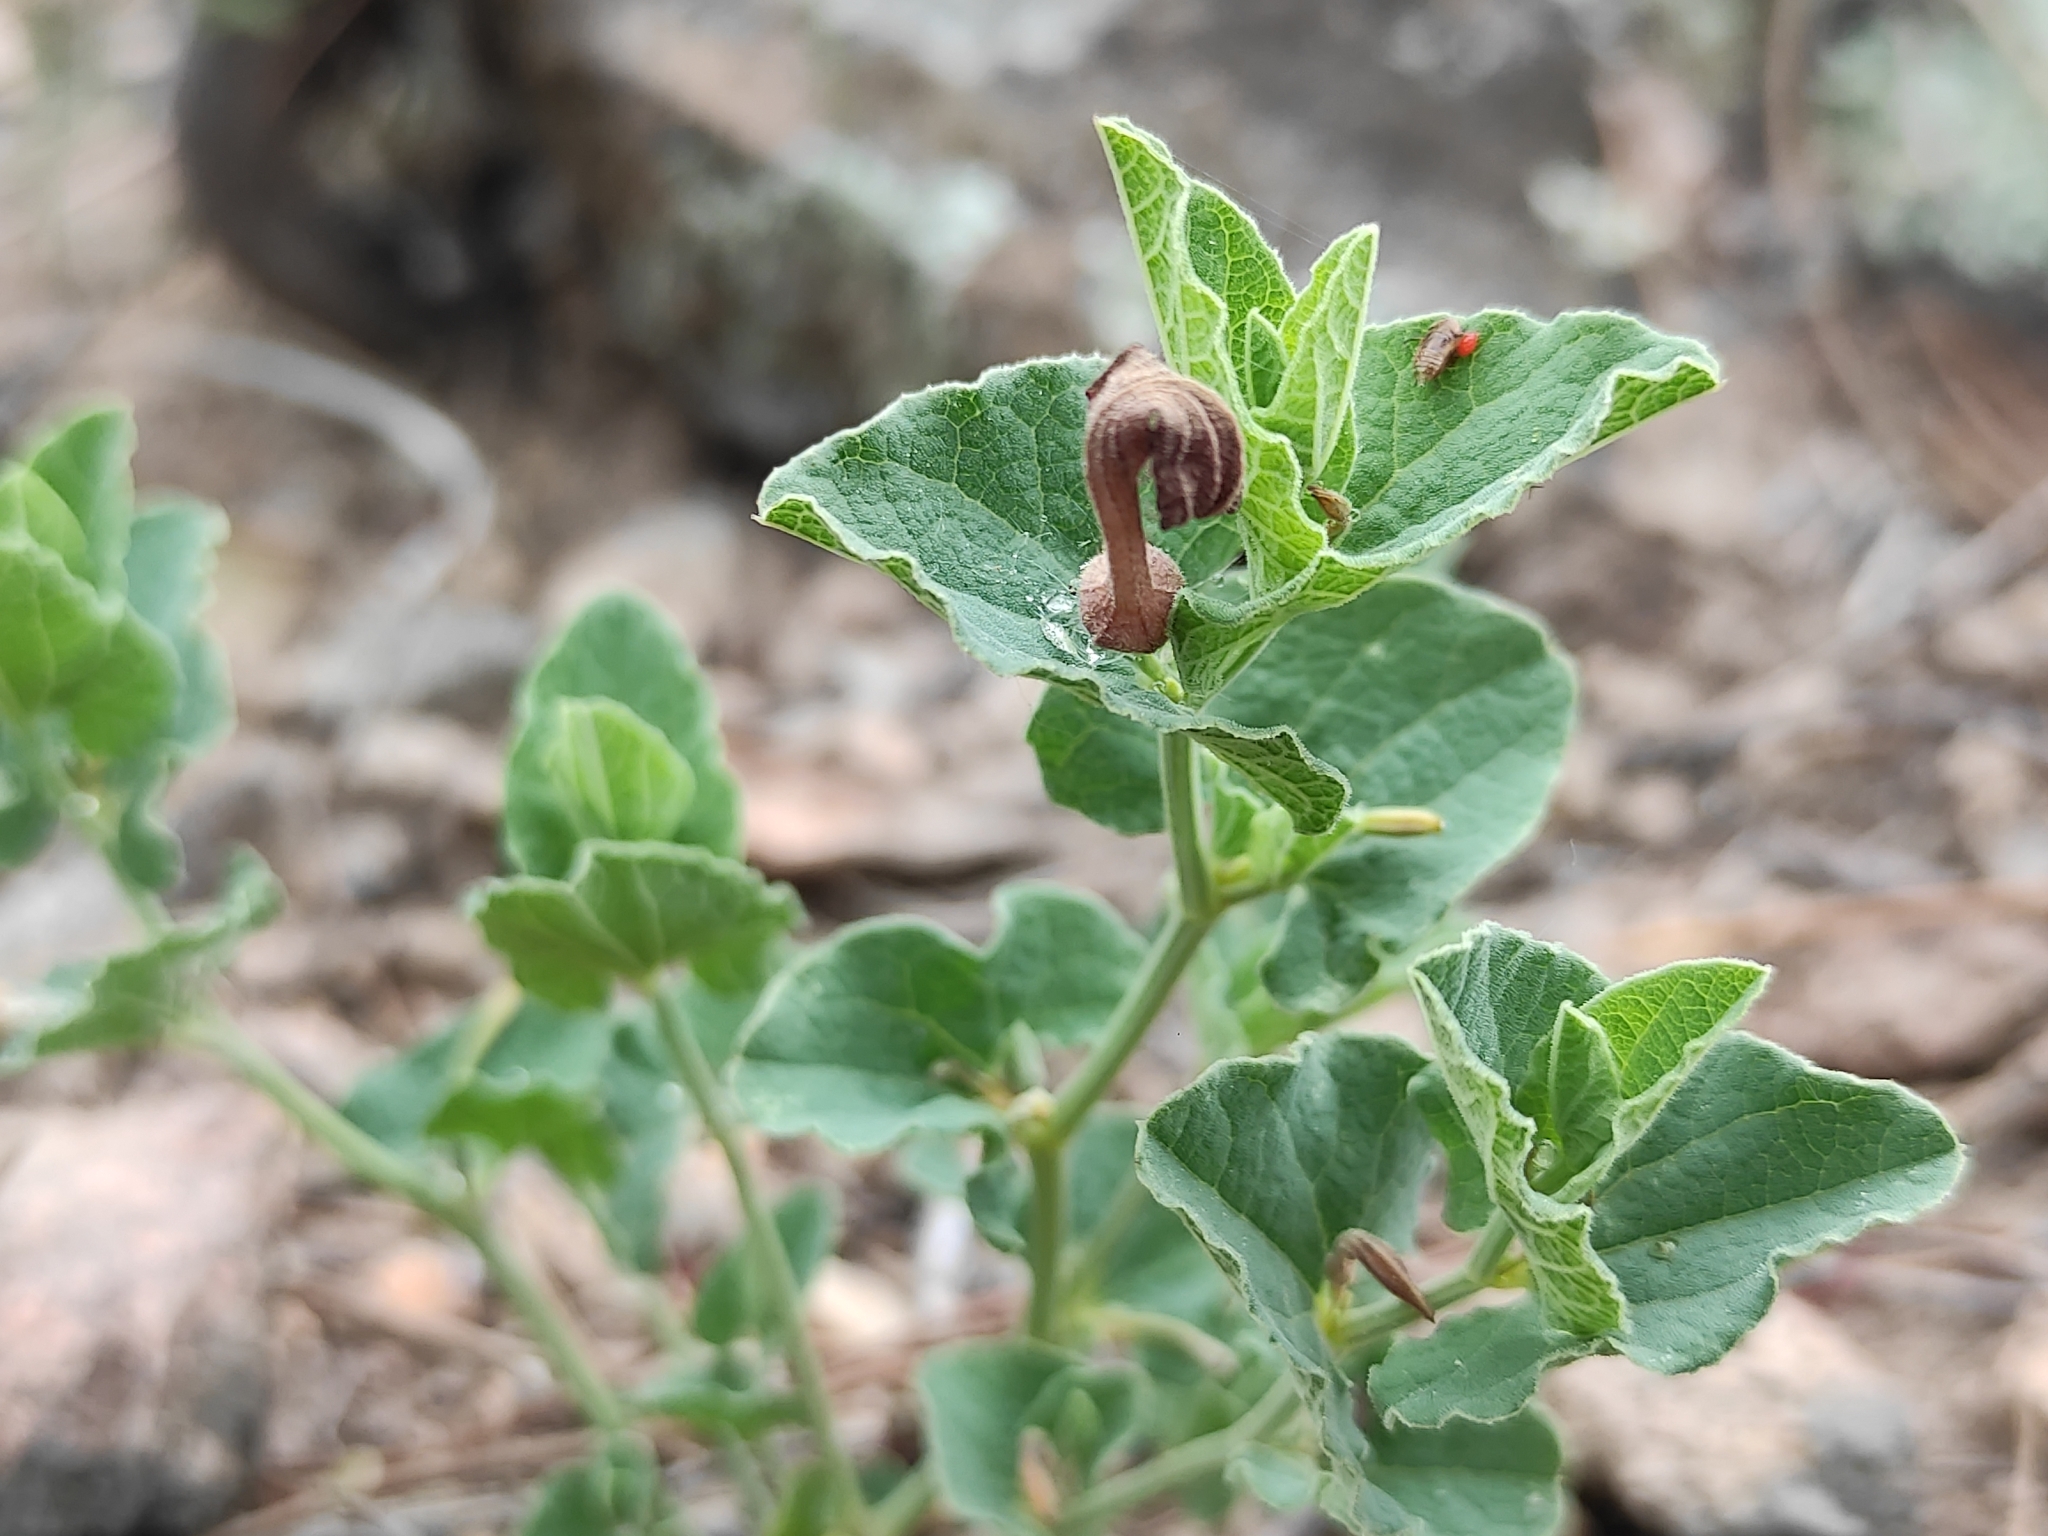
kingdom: Plantae
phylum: Tracheophyta
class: Magnoliopsida
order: Piperales
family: Aristolochiaceae
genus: Aristolochia
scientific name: Aristolochia pistolochia
